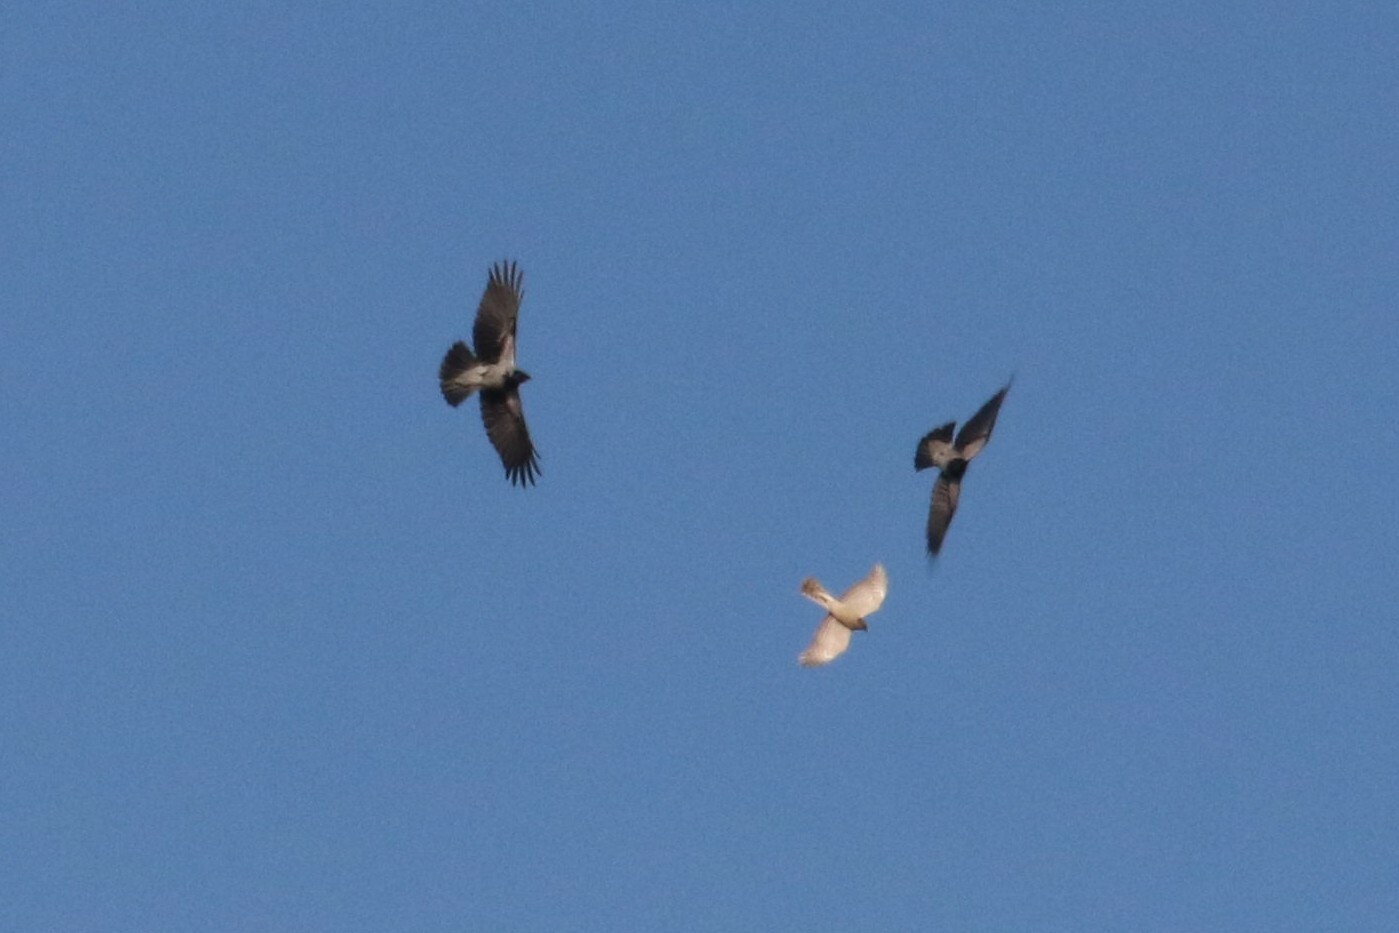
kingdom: Animalia
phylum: Chordata
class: Aves
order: Accipitriformes
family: Accipitridae
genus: Accipiter
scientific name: Accipiter nisus
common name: Eurasian sparrowhawk
